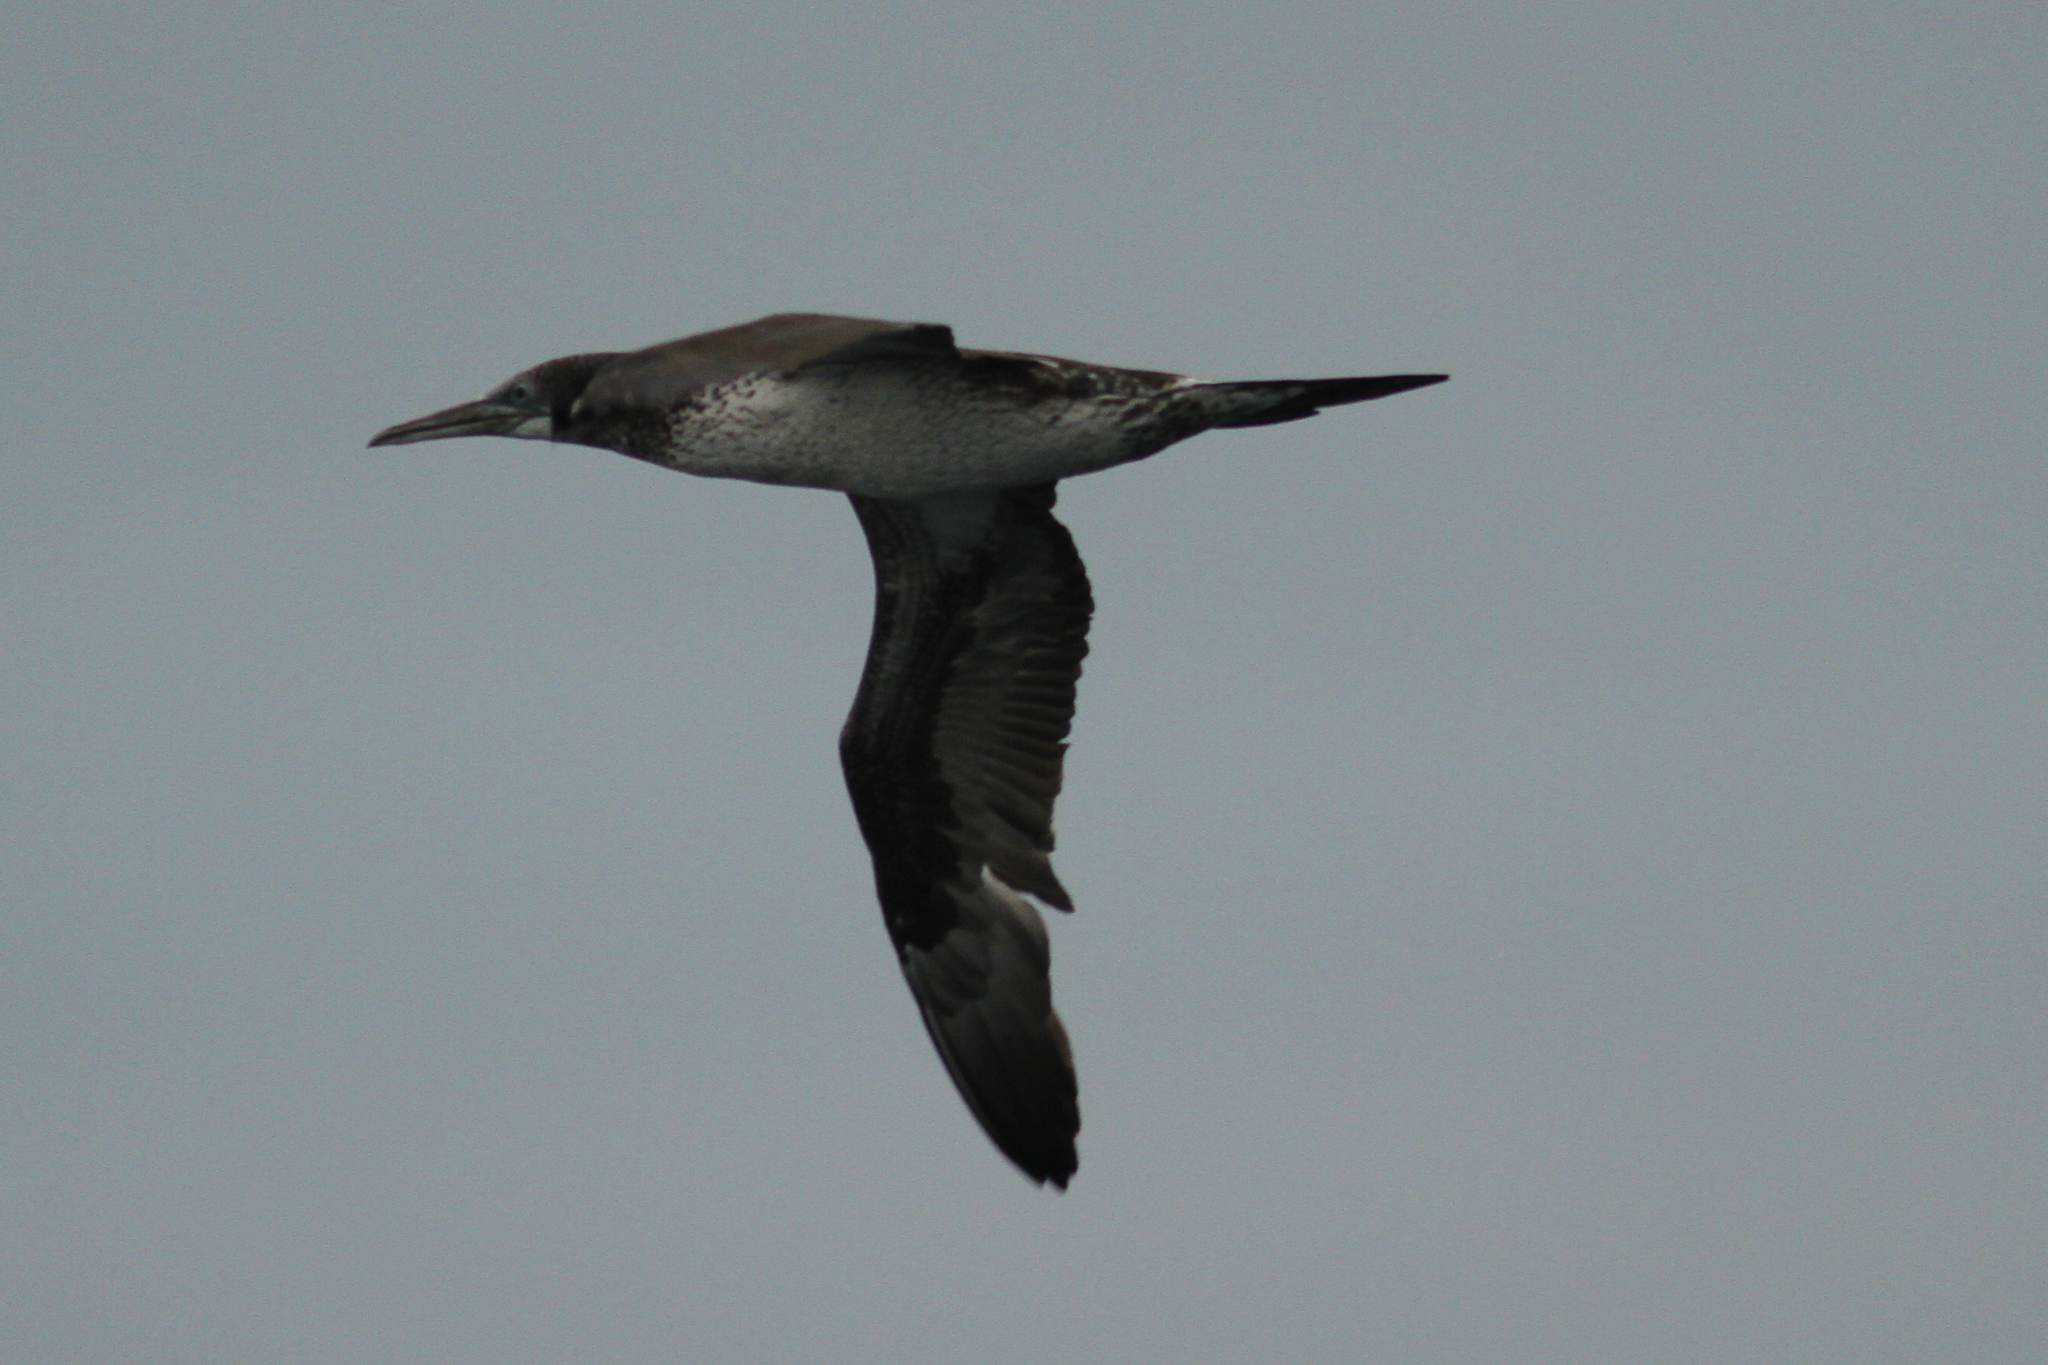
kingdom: Animalia
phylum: Chordata
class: Aves
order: Suliformes
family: Sulidae
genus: Morus
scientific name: Morus bassanus
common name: Northern gannet
